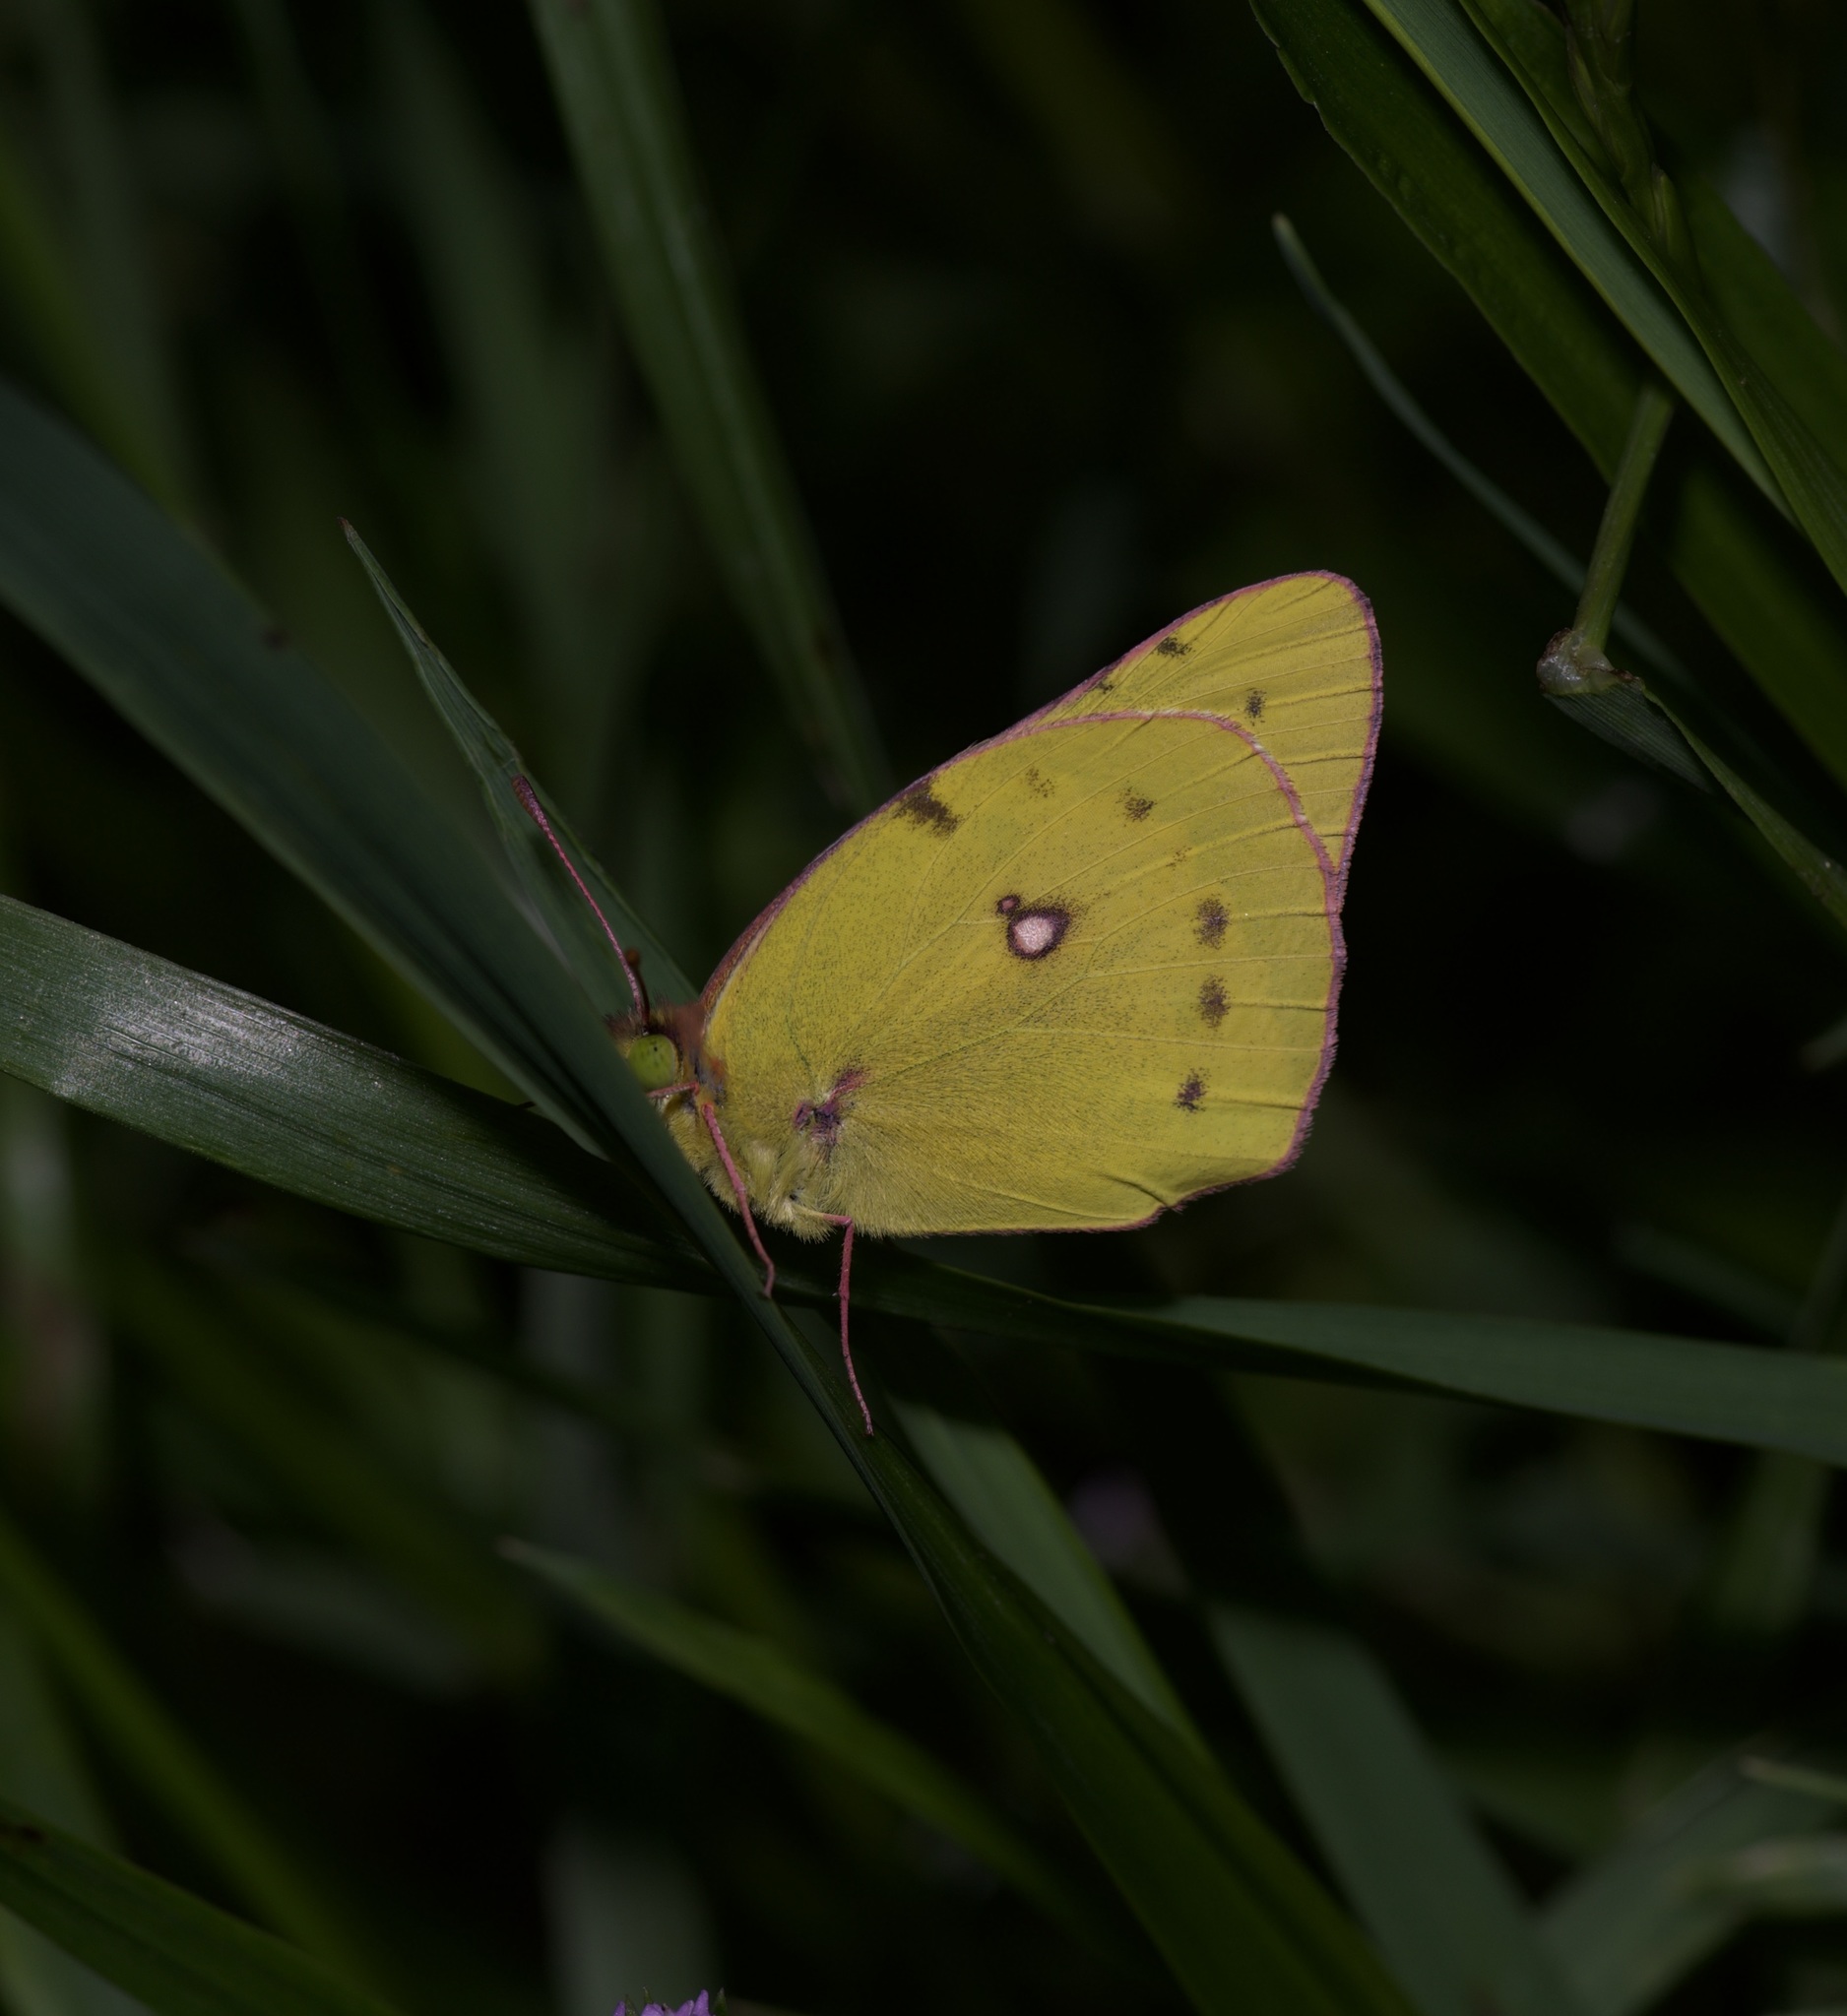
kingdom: Animalia
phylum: Arthropoda
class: Insecta
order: Lepidoptera
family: Pieridae
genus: Colias
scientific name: Colias eurytheme
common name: Alfalfa butterfly
